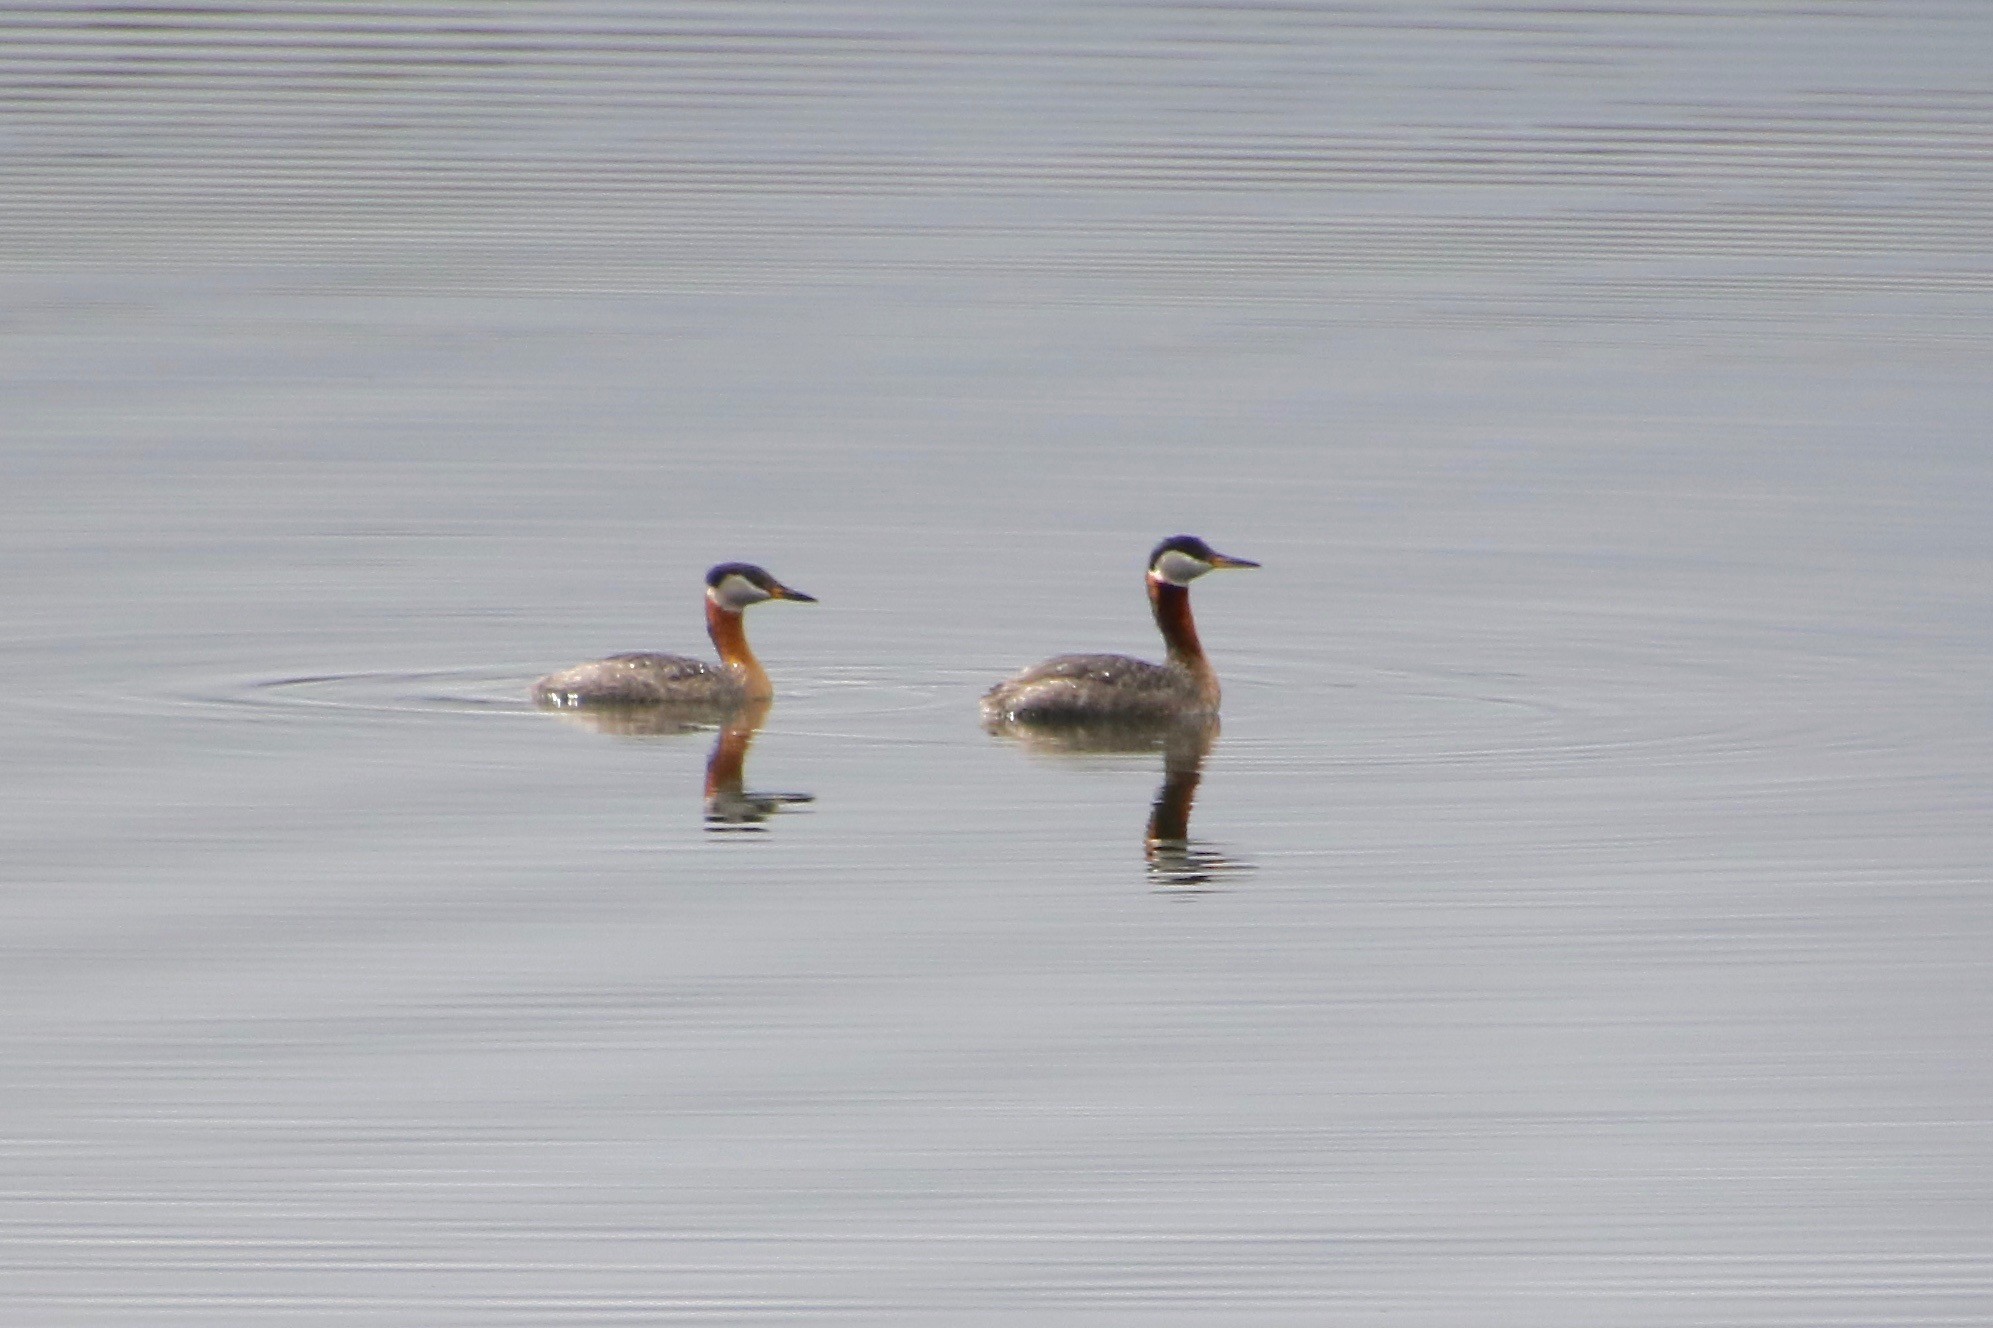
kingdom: Animalia
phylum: Chordata
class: Aves
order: Podicipediformes
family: Podicipedidae
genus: Podiceps
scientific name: Podiceps grisegena
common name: Red-necked grebe
